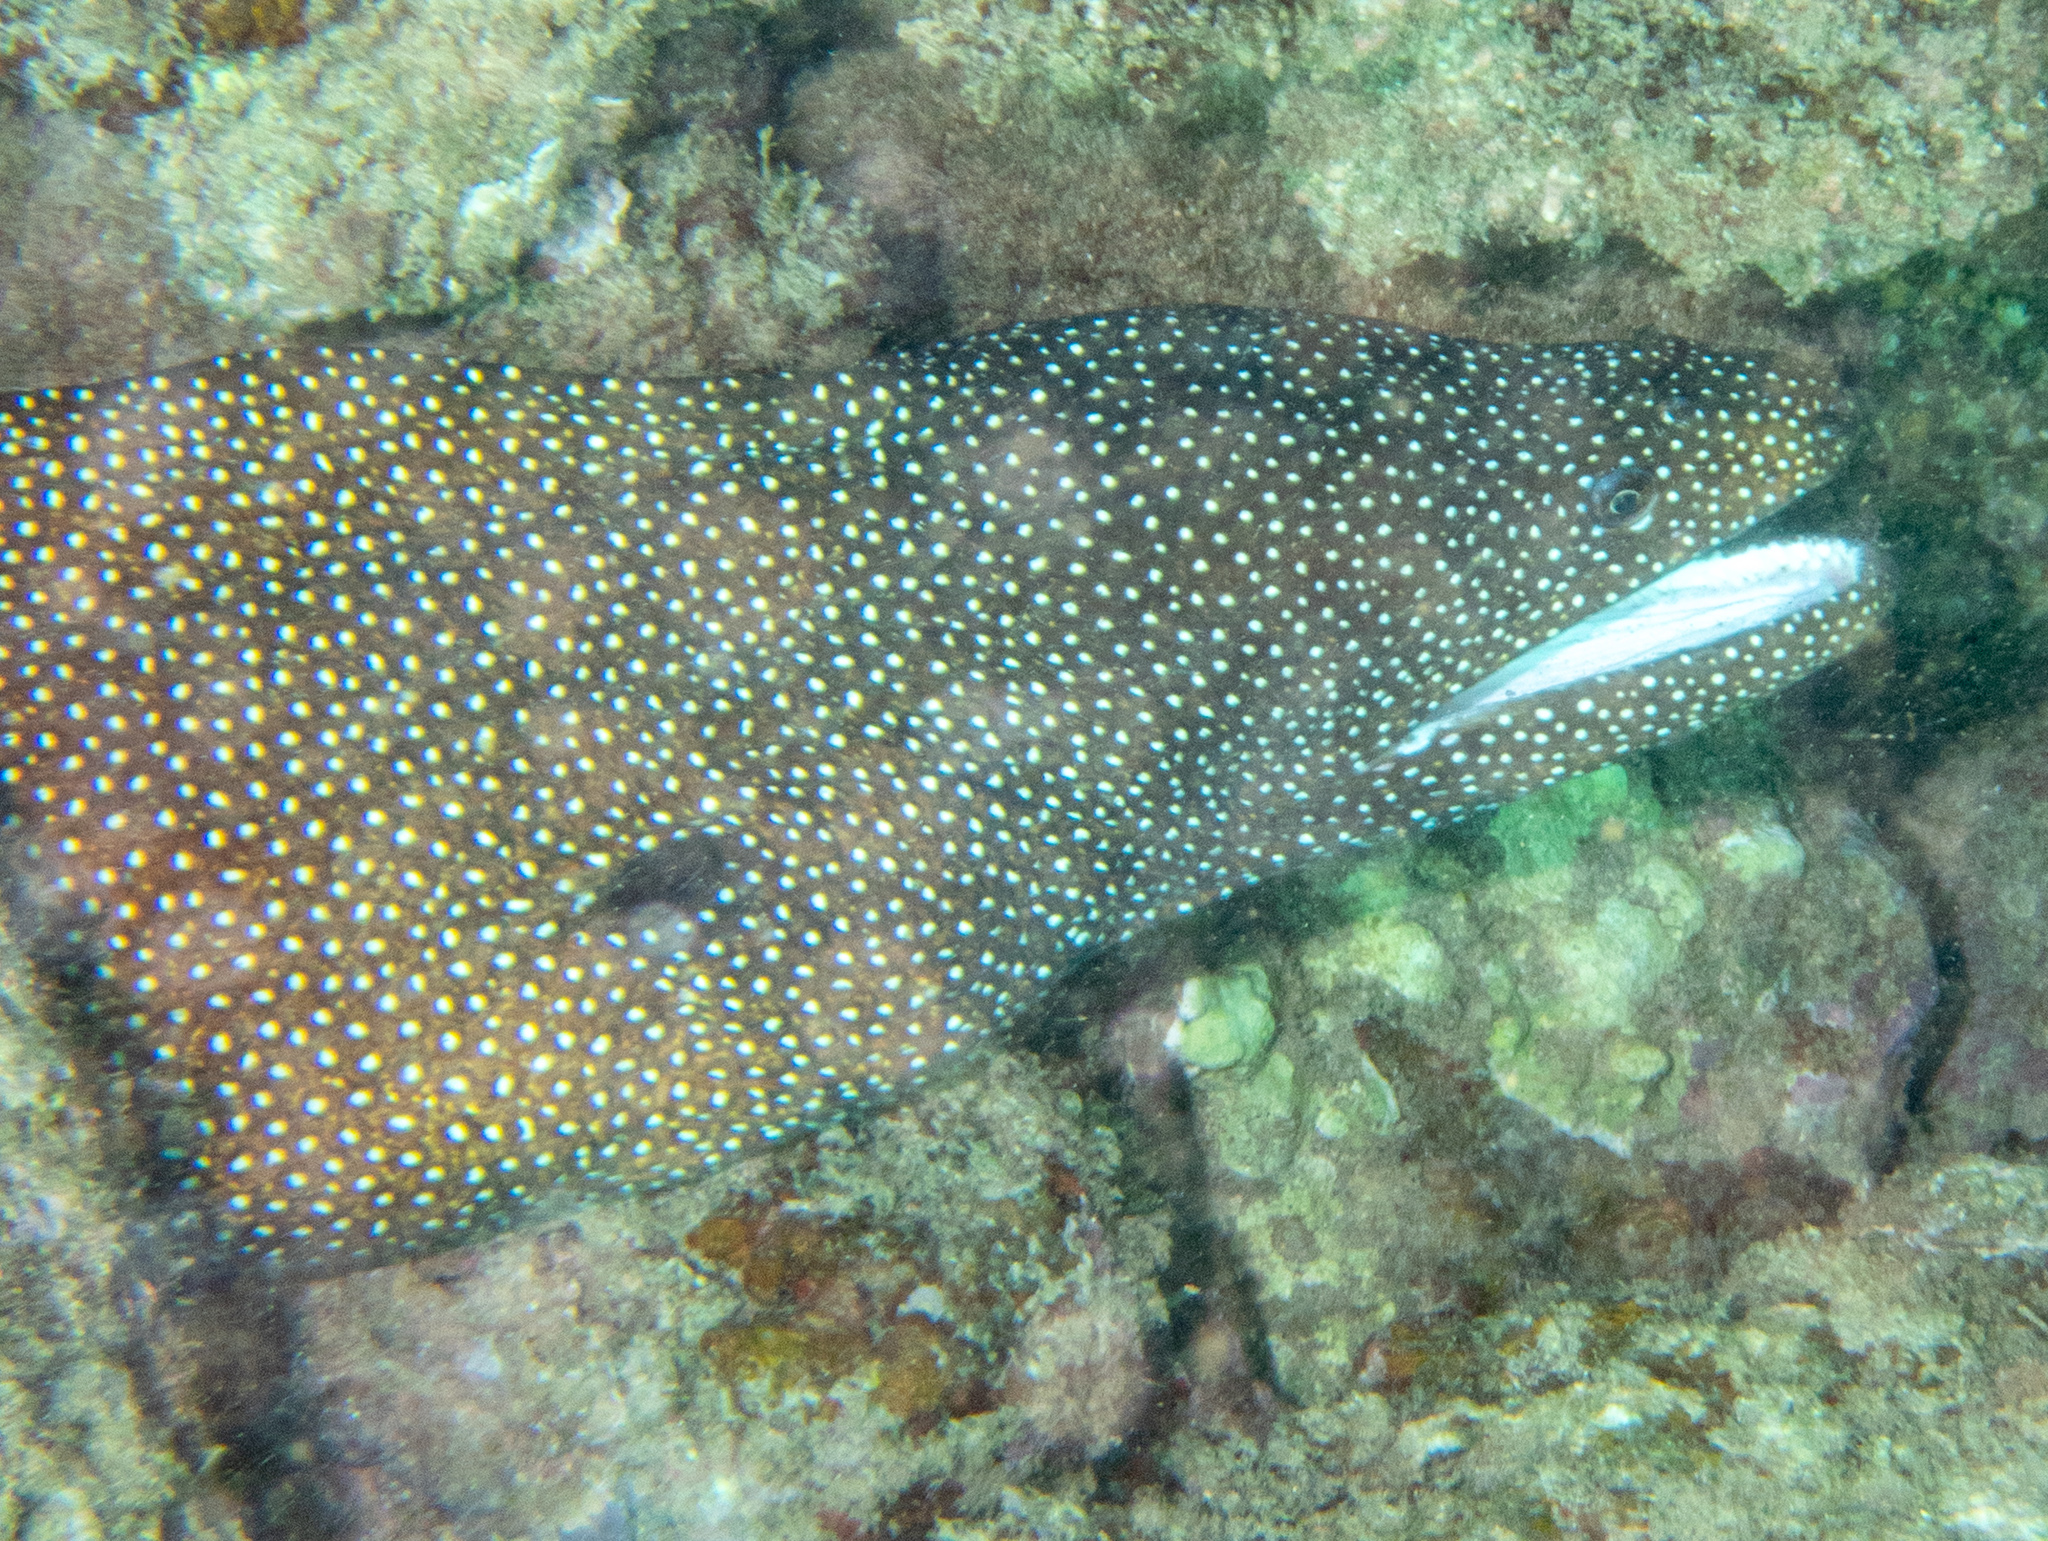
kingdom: Animalia
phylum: Chordata
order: Anguilliformes
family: Muraenidae
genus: Gymnothorax
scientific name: Gymnothorax meleagris
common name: Guineafowl moray
